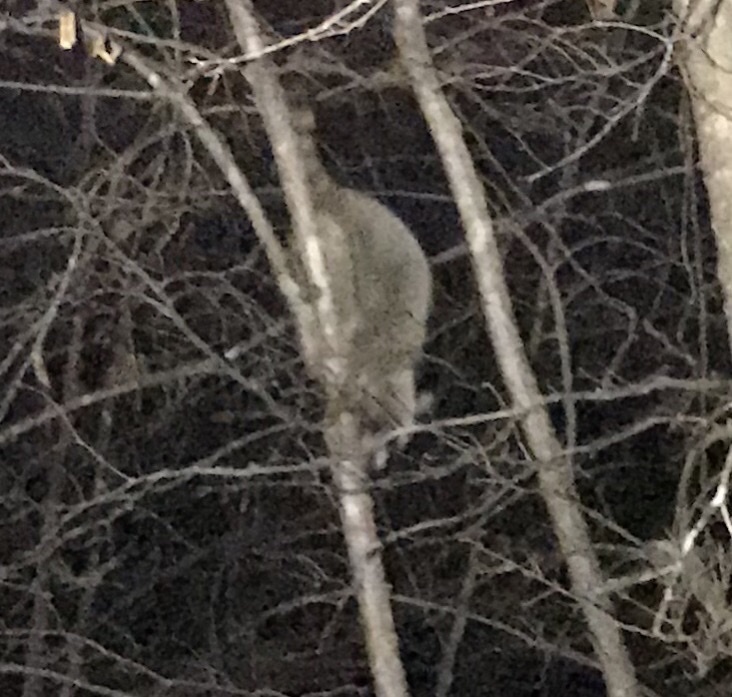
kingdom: Animalia
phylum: Chordata
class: Mammalia
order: Carnivora
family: Procyonidae
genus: Procyon
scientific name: Procyon lotor
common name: Raccoon
